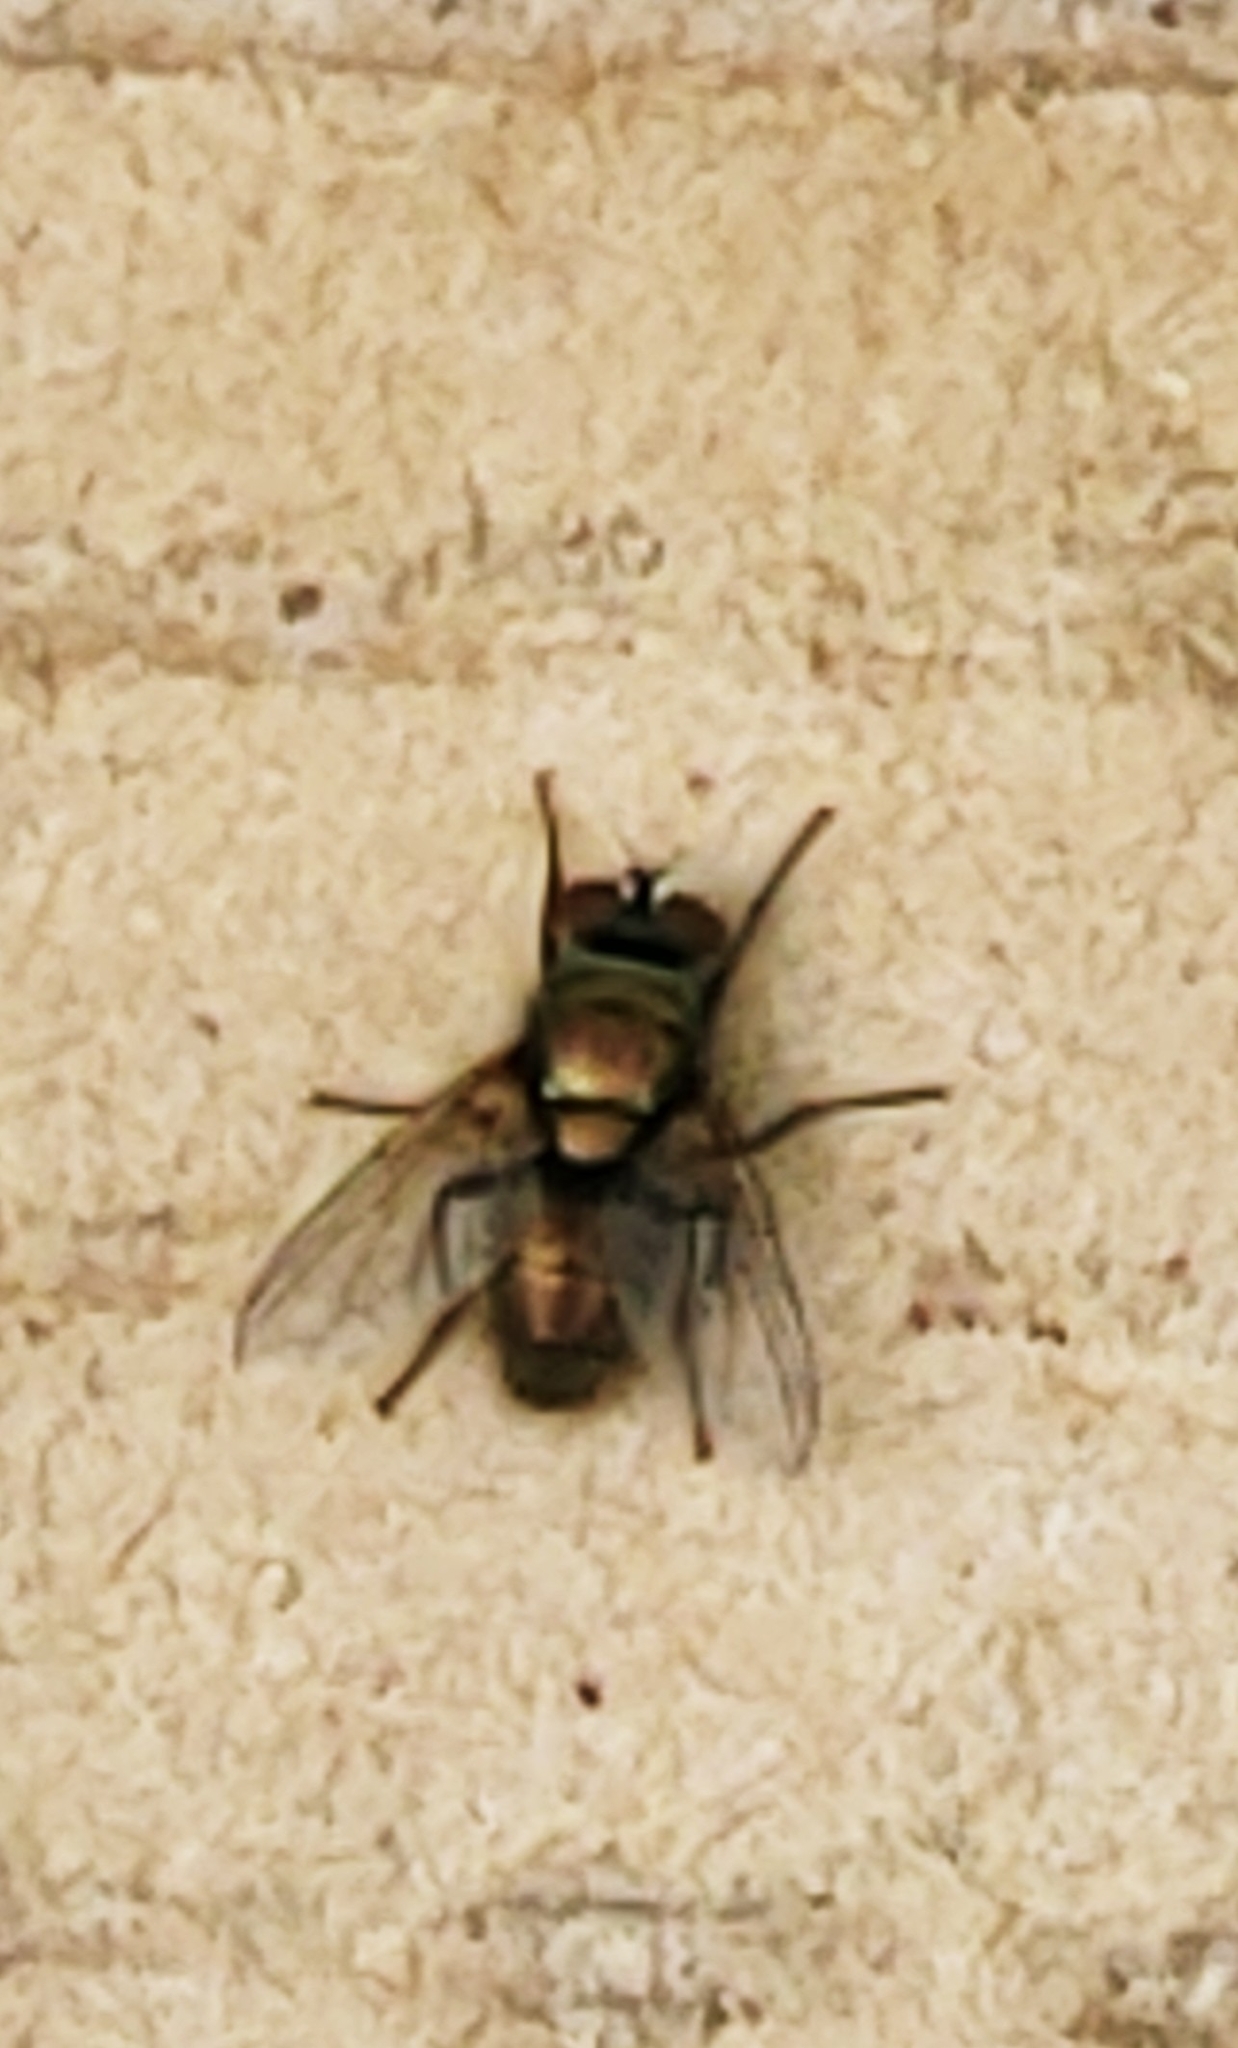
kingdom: Animalia
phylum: Arthropoda
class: Insecta
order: Diptera
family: Calliphoridae
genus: Lucilia
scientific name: Lucilia cuprina
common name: Sheep blow fly
